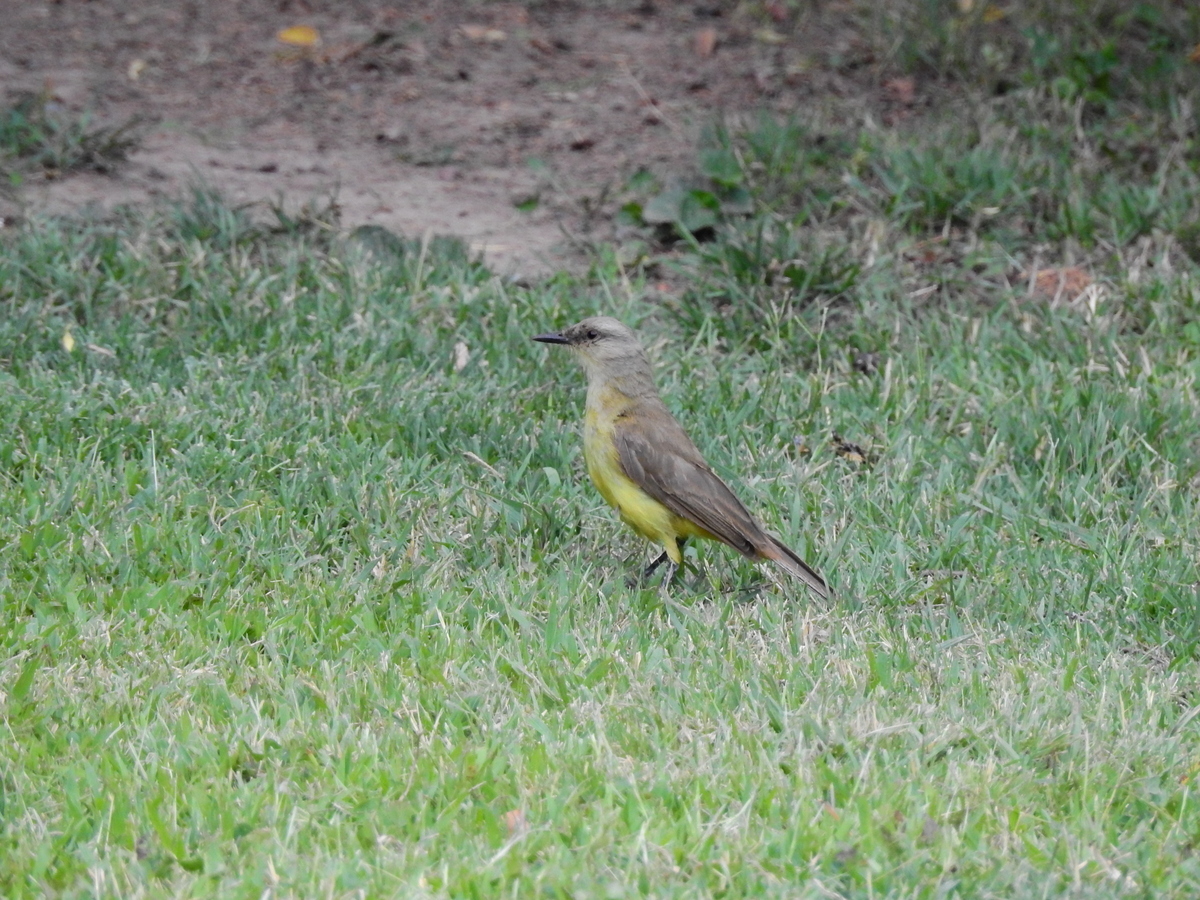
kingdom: Animalia
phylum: Chordata
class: Aves
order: Passeriformes
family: Tyrannidae
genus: Machetornis
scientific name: Machetornis rixosa
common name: Cattle tyrant
